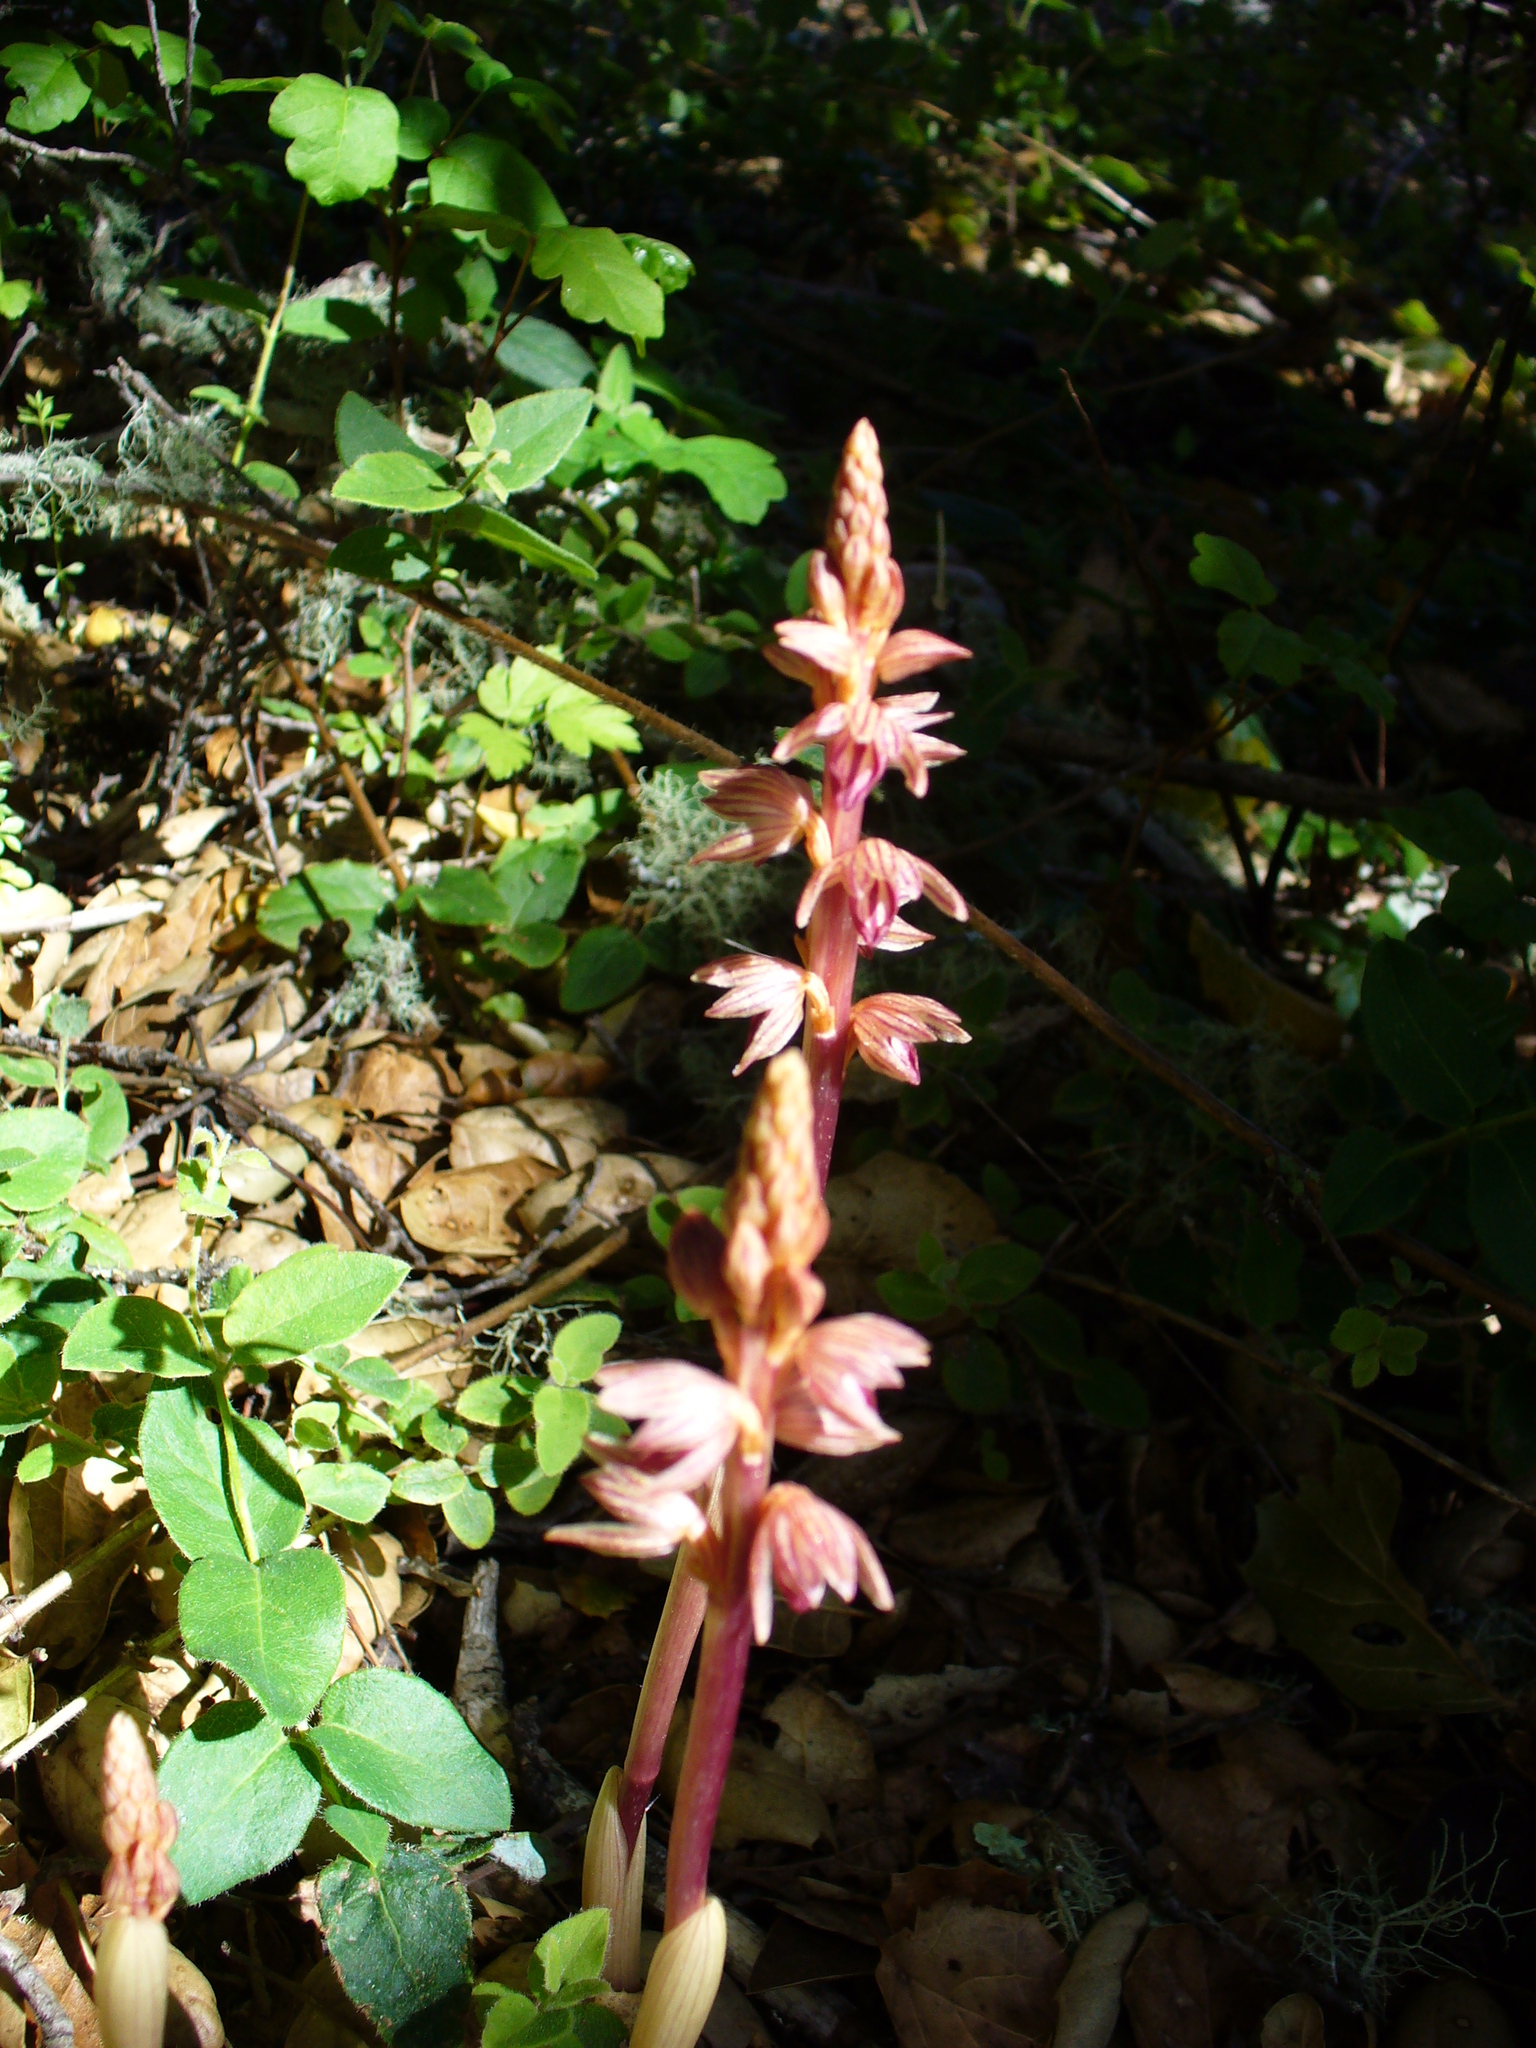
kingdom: Plantae
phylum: Tracheophyta
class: Liliopsida
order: Asparagales
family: Orchidaceae
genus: Corallorhiza
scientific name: Corallorhiza striata
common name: Hooded coralroot
